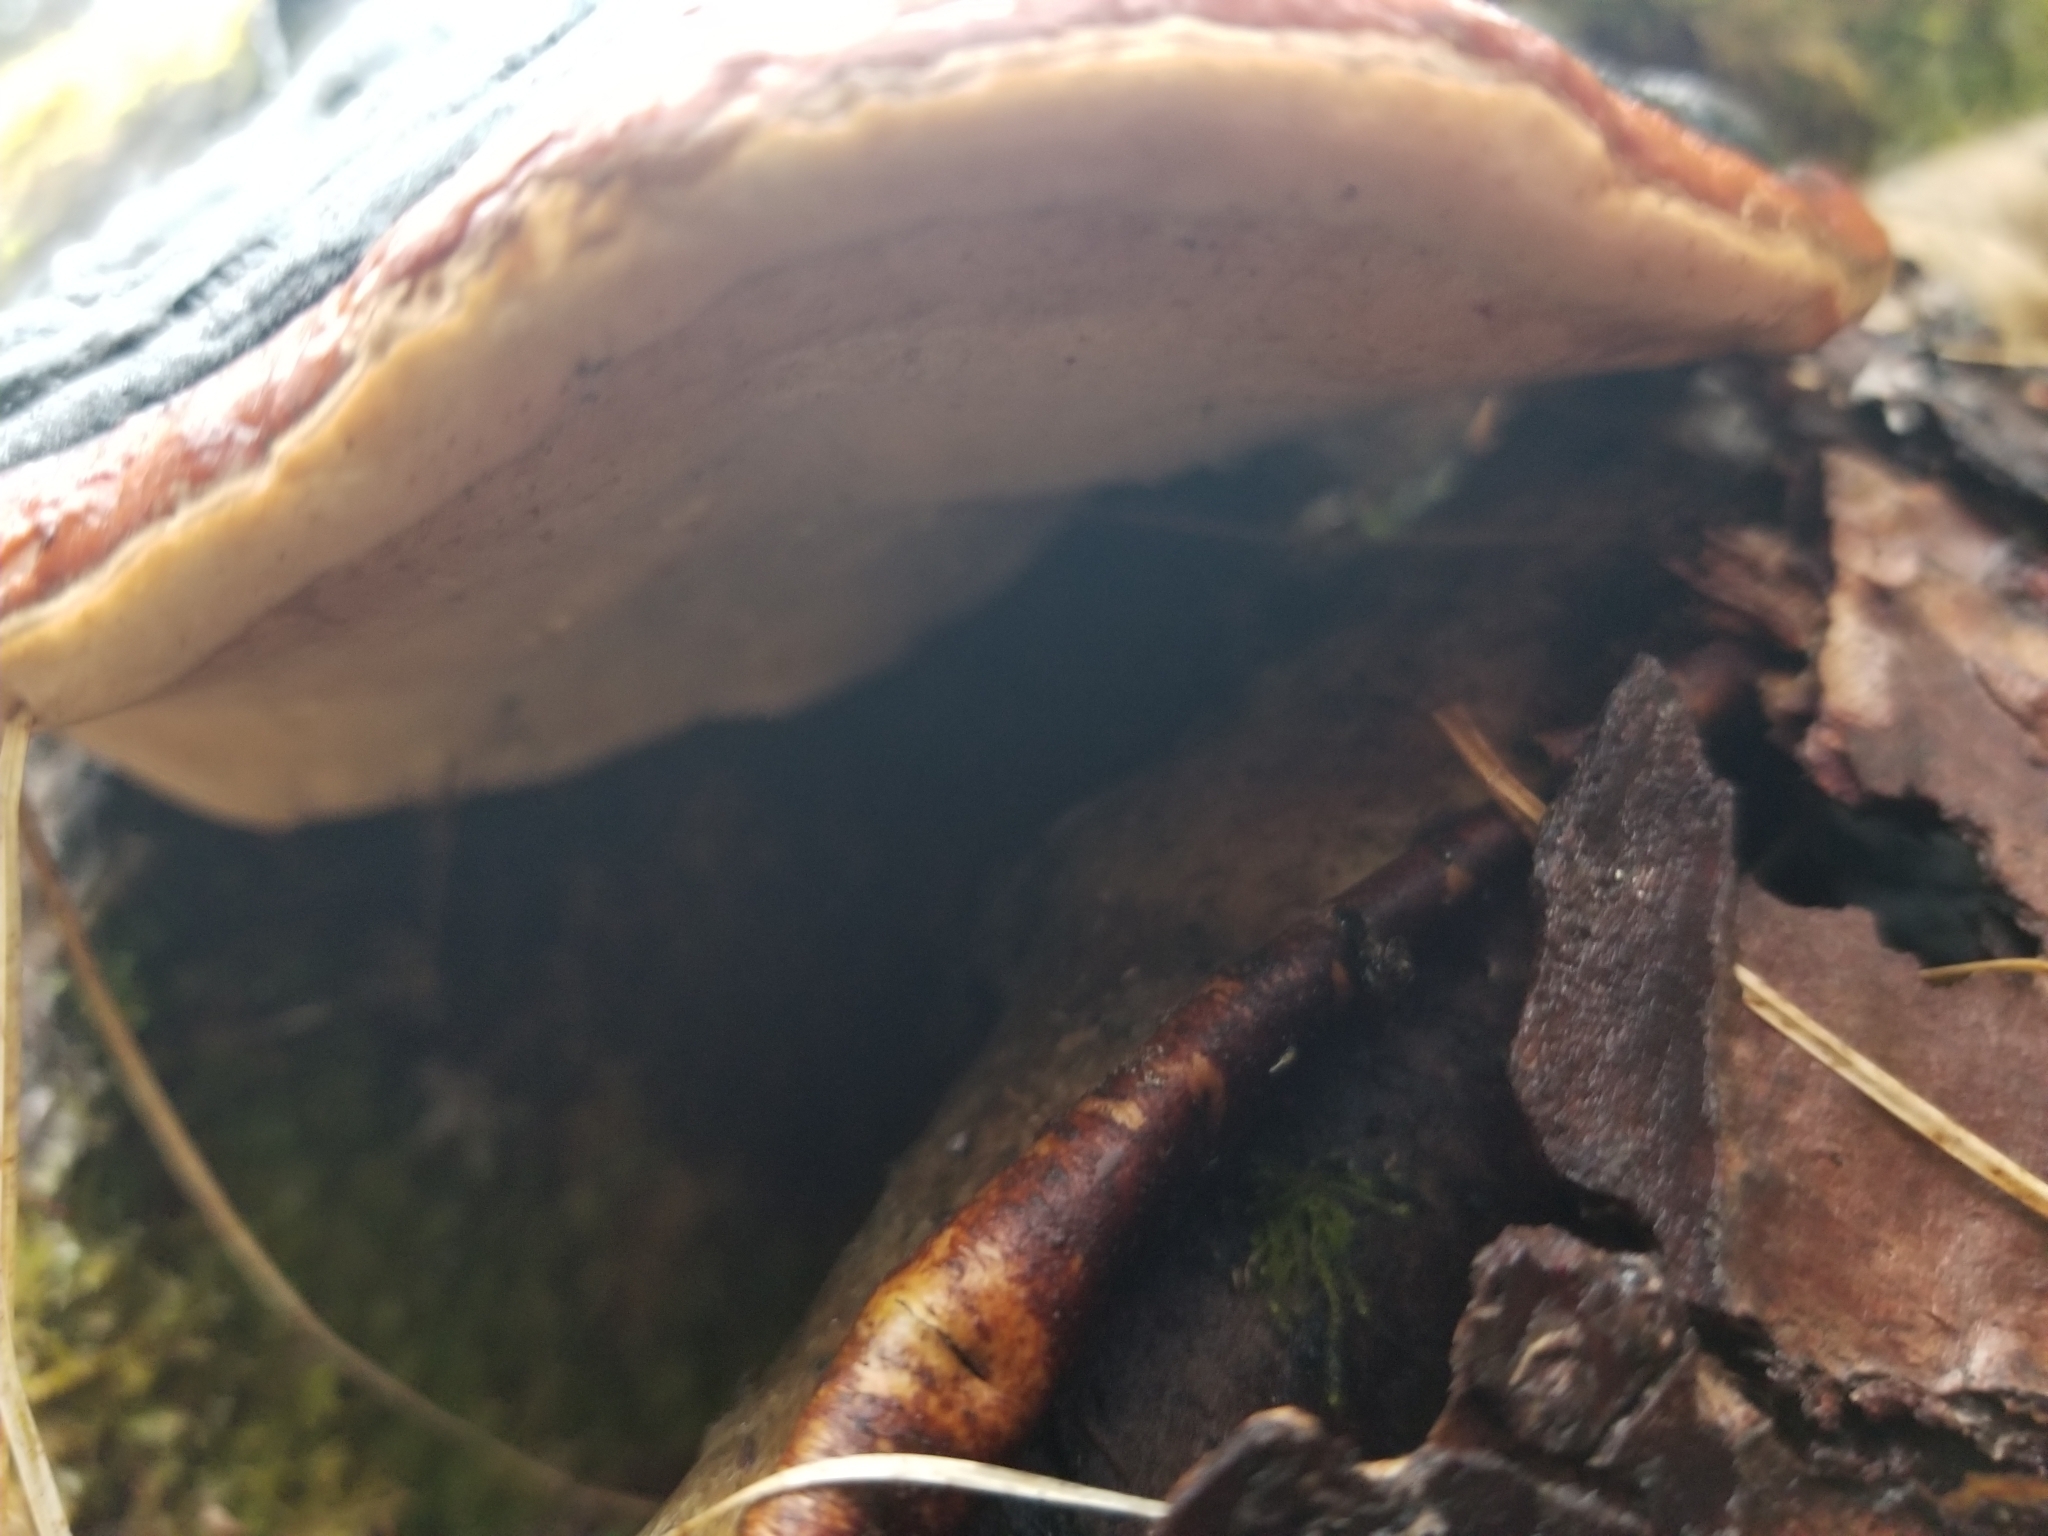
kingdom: Fungi
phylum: Basidiomycota
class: Agaricomycetes
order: Polyporales
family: Fomitopsidaceae
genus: Fomitopsis
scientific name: Fomitopsis mounceae
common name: Northern red belt
